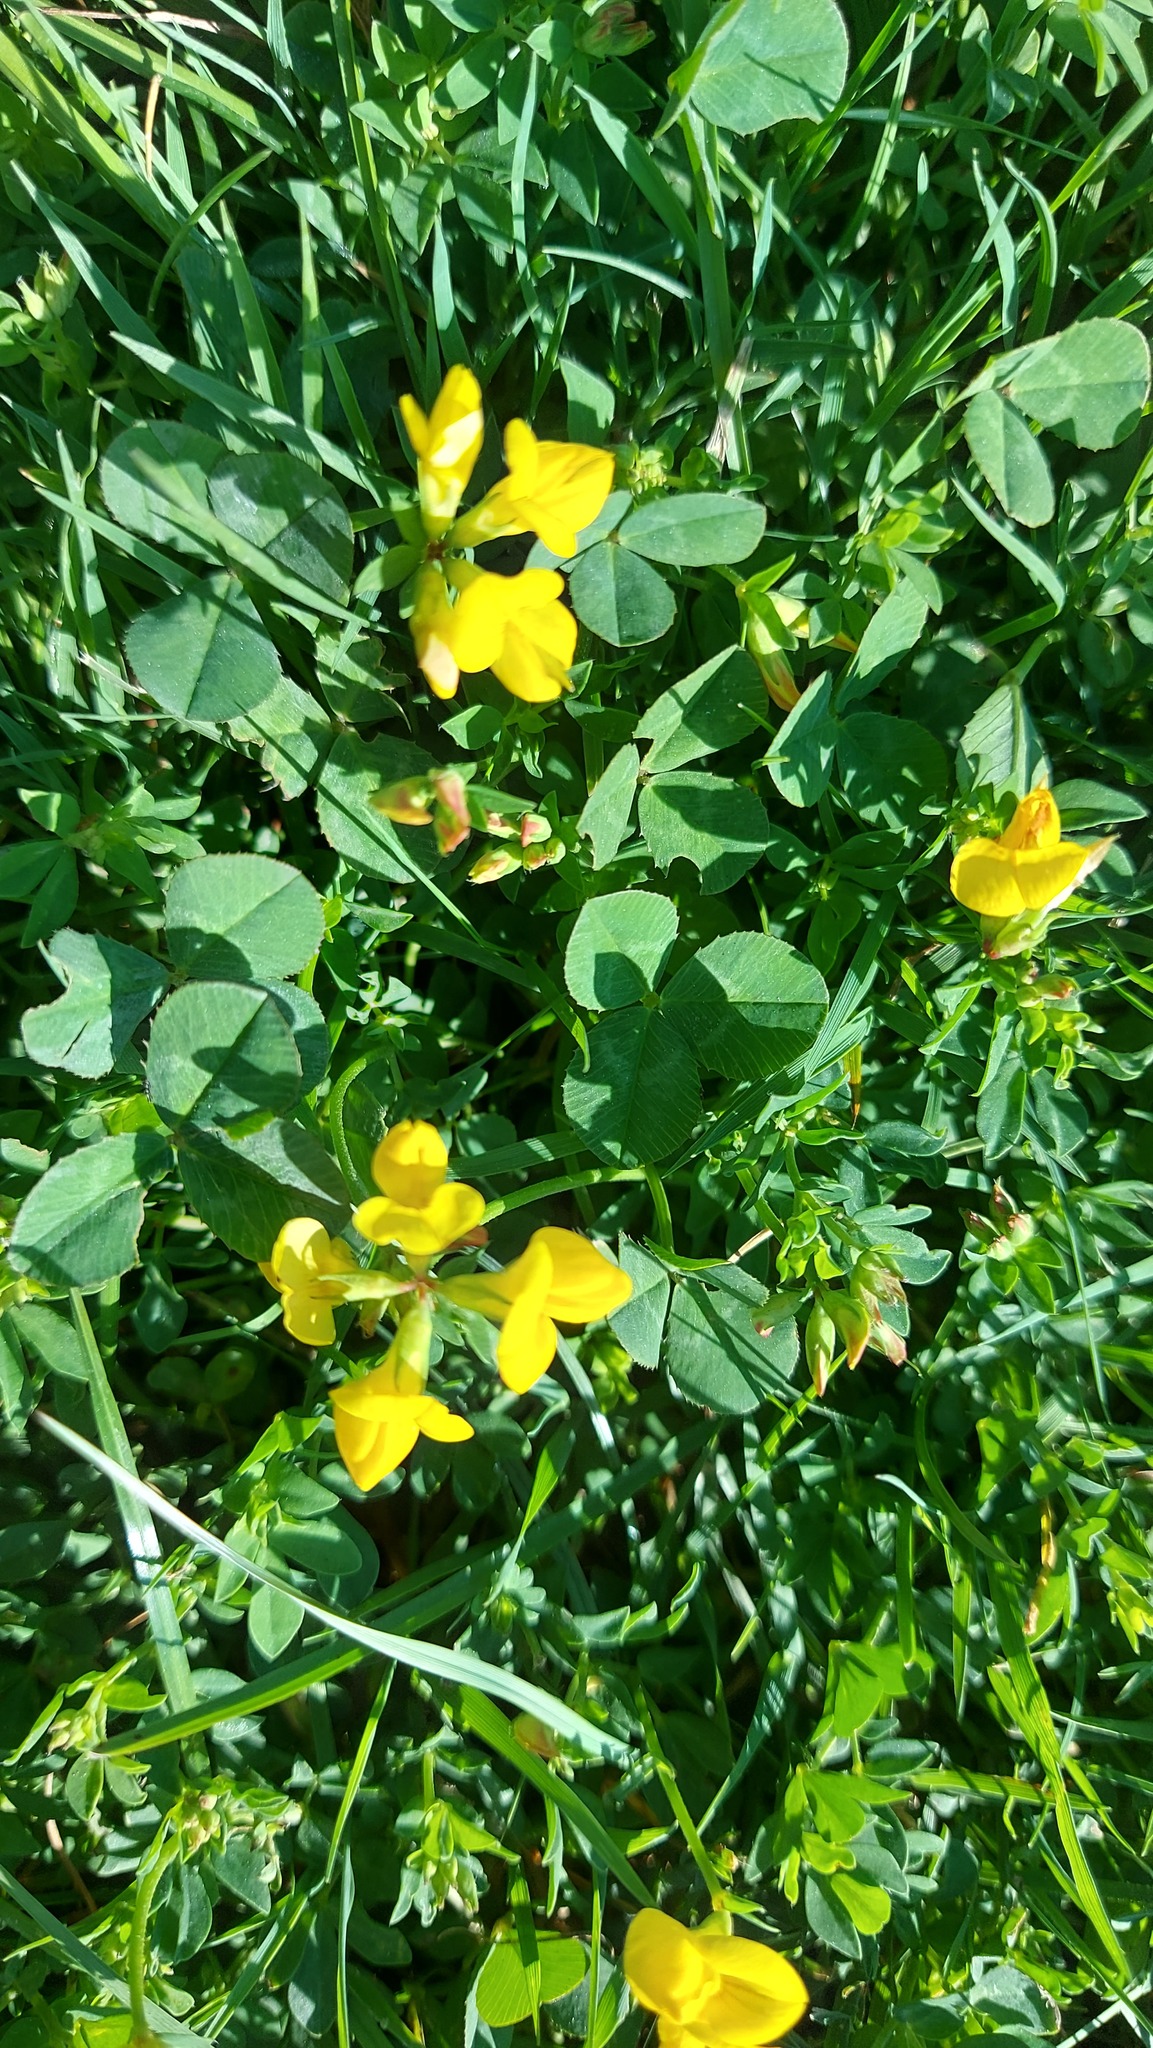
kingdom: Plantae
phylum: Tracheophyta
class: Magnoliopsida
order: Fabales
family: Fabaceae
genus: Lotus
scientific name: Lotus corniculatus
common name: Common bird's-foot-trefoil
